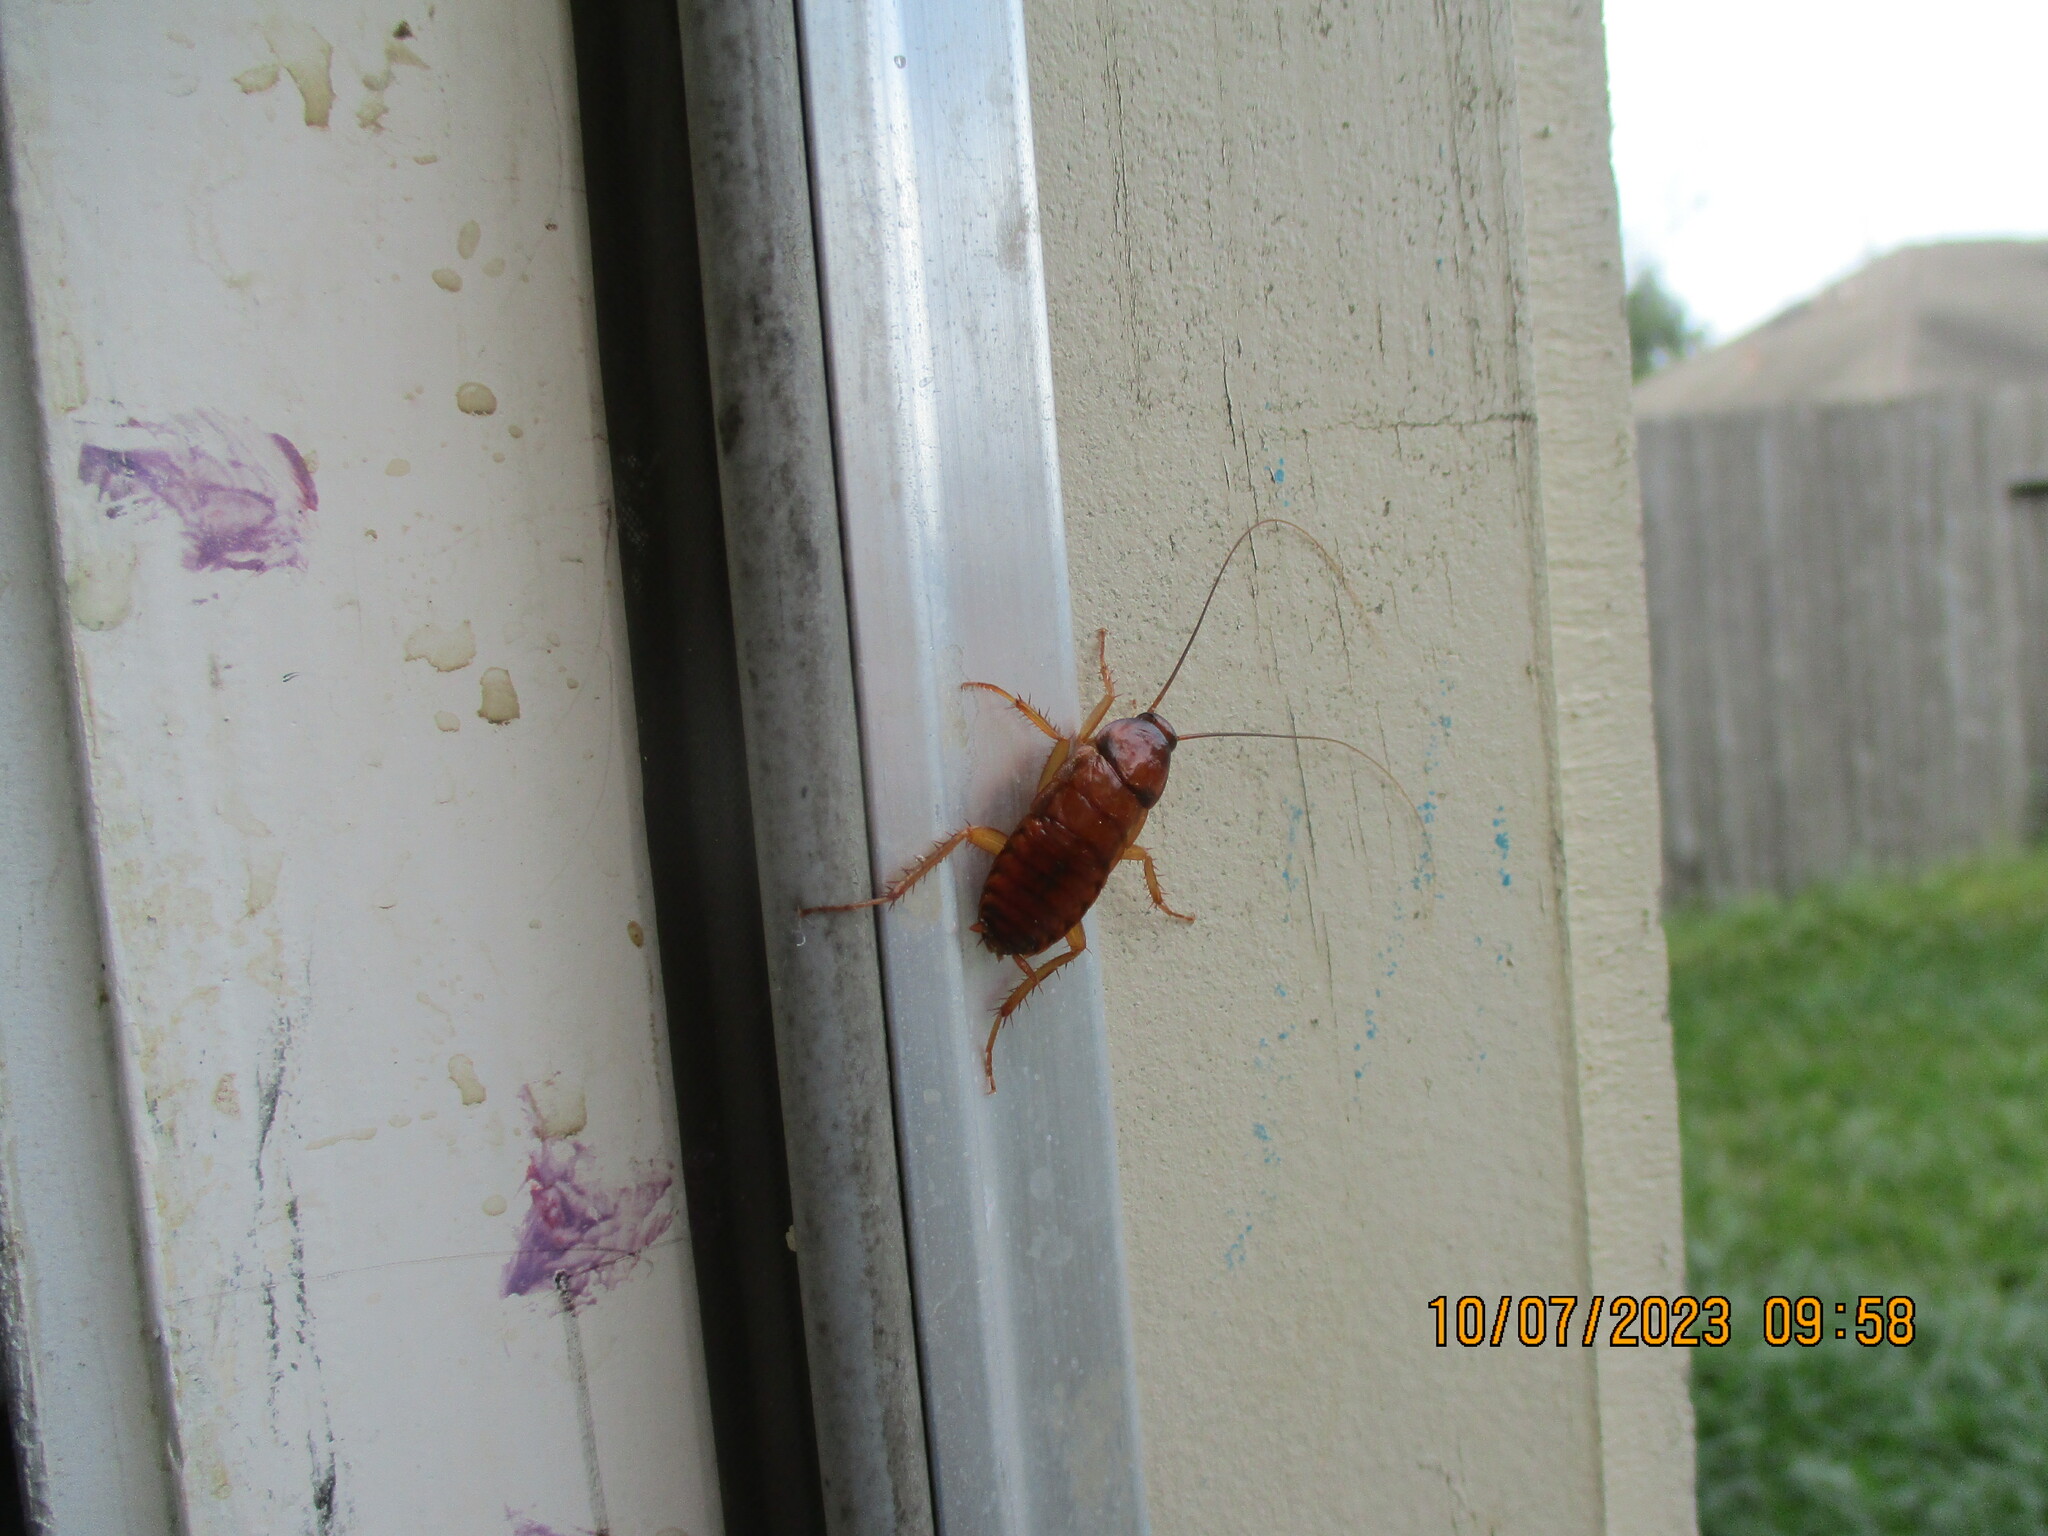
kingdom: Animalia
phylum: Arthropoda
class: Insecta
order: Blattodea
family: Blattidae
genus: Periplaneta
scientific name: Periplaneta americana
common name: American cockroach
